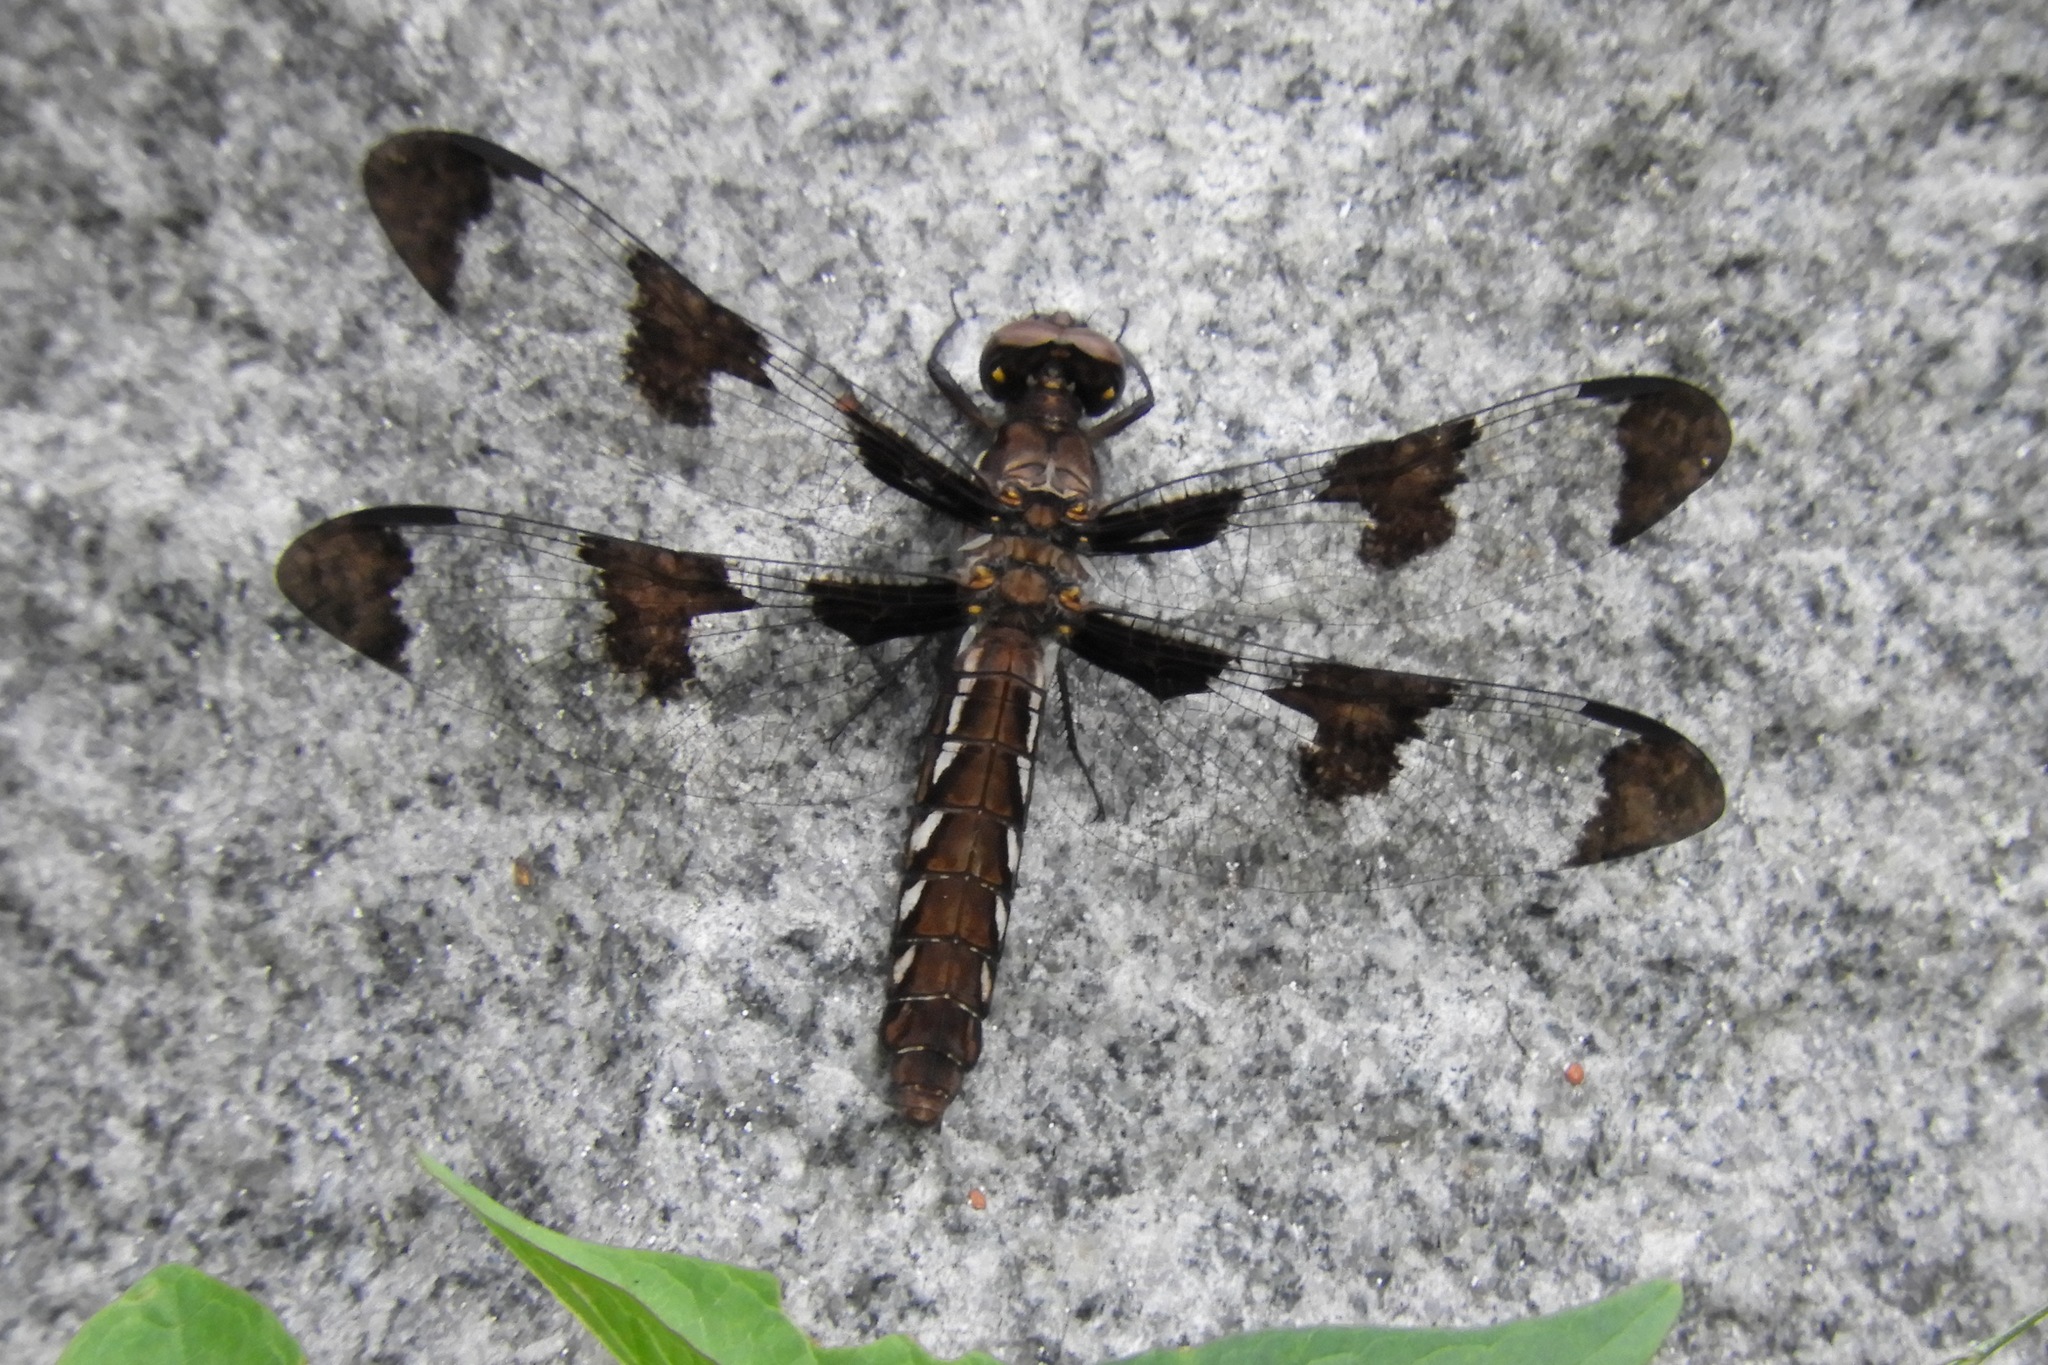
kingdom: Animalia
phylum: Arthropoda
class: Insecta
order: Odonata
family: Libellulidae
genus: Plathemis
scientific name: Plathemis lydia
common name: Common whitetail
